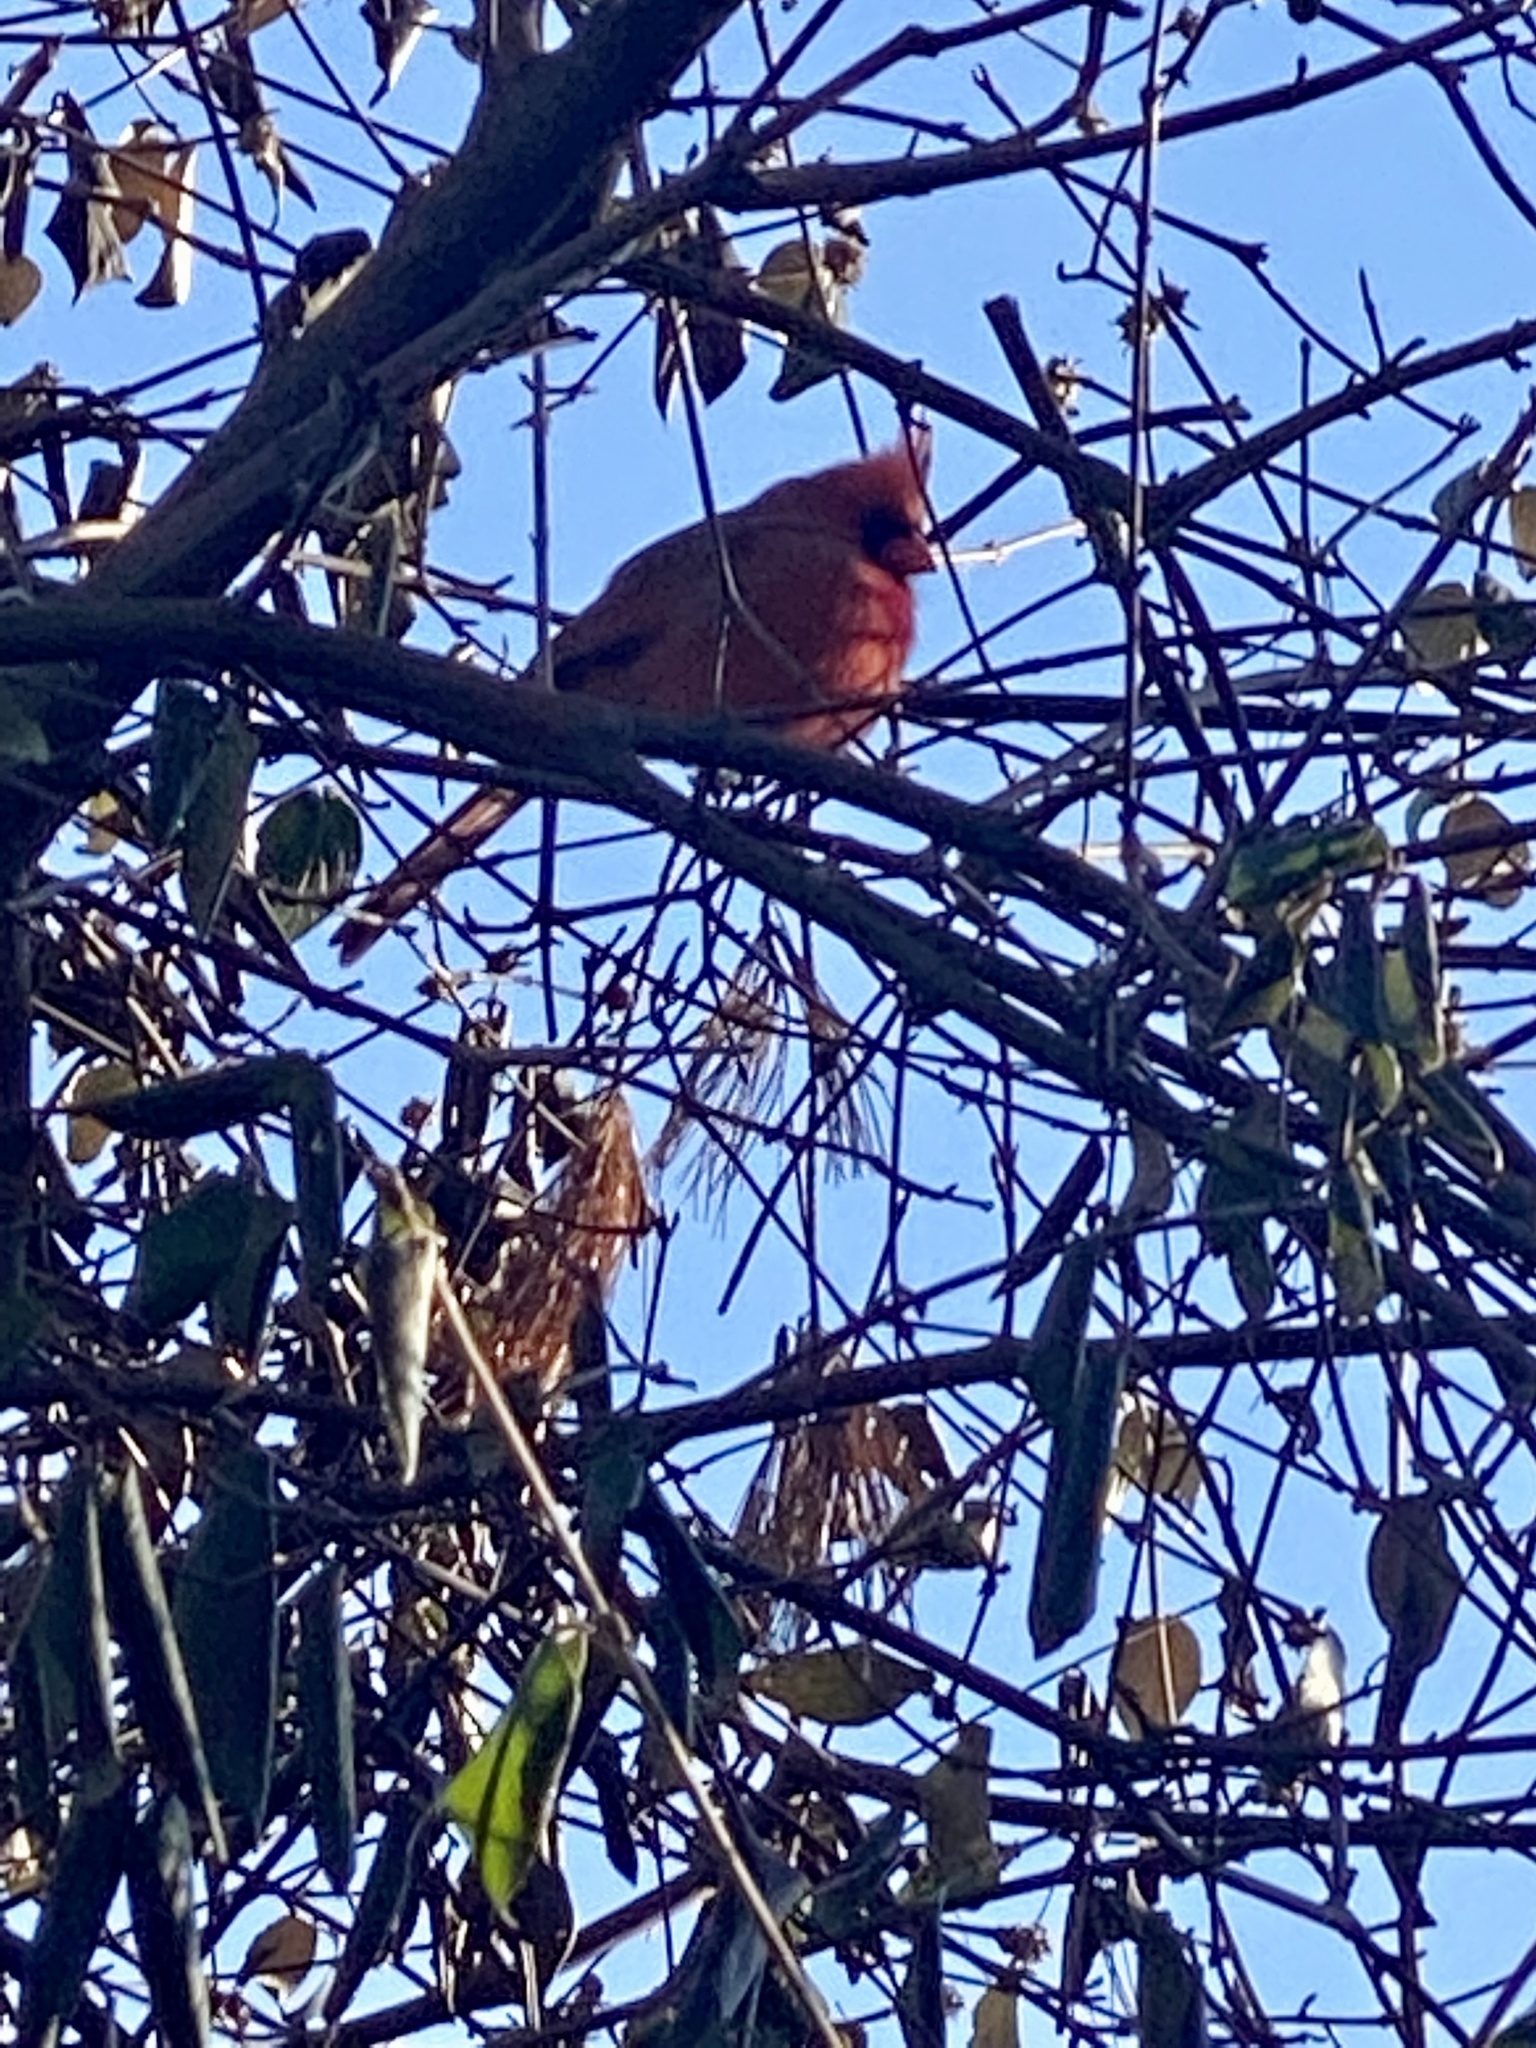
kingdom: Animalia
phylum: Chordata
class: Aves
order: Passeriformes
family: Cardinalidae
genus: Cardinalis
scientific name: Cardinalis cardinalis
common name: Northern cardinal
